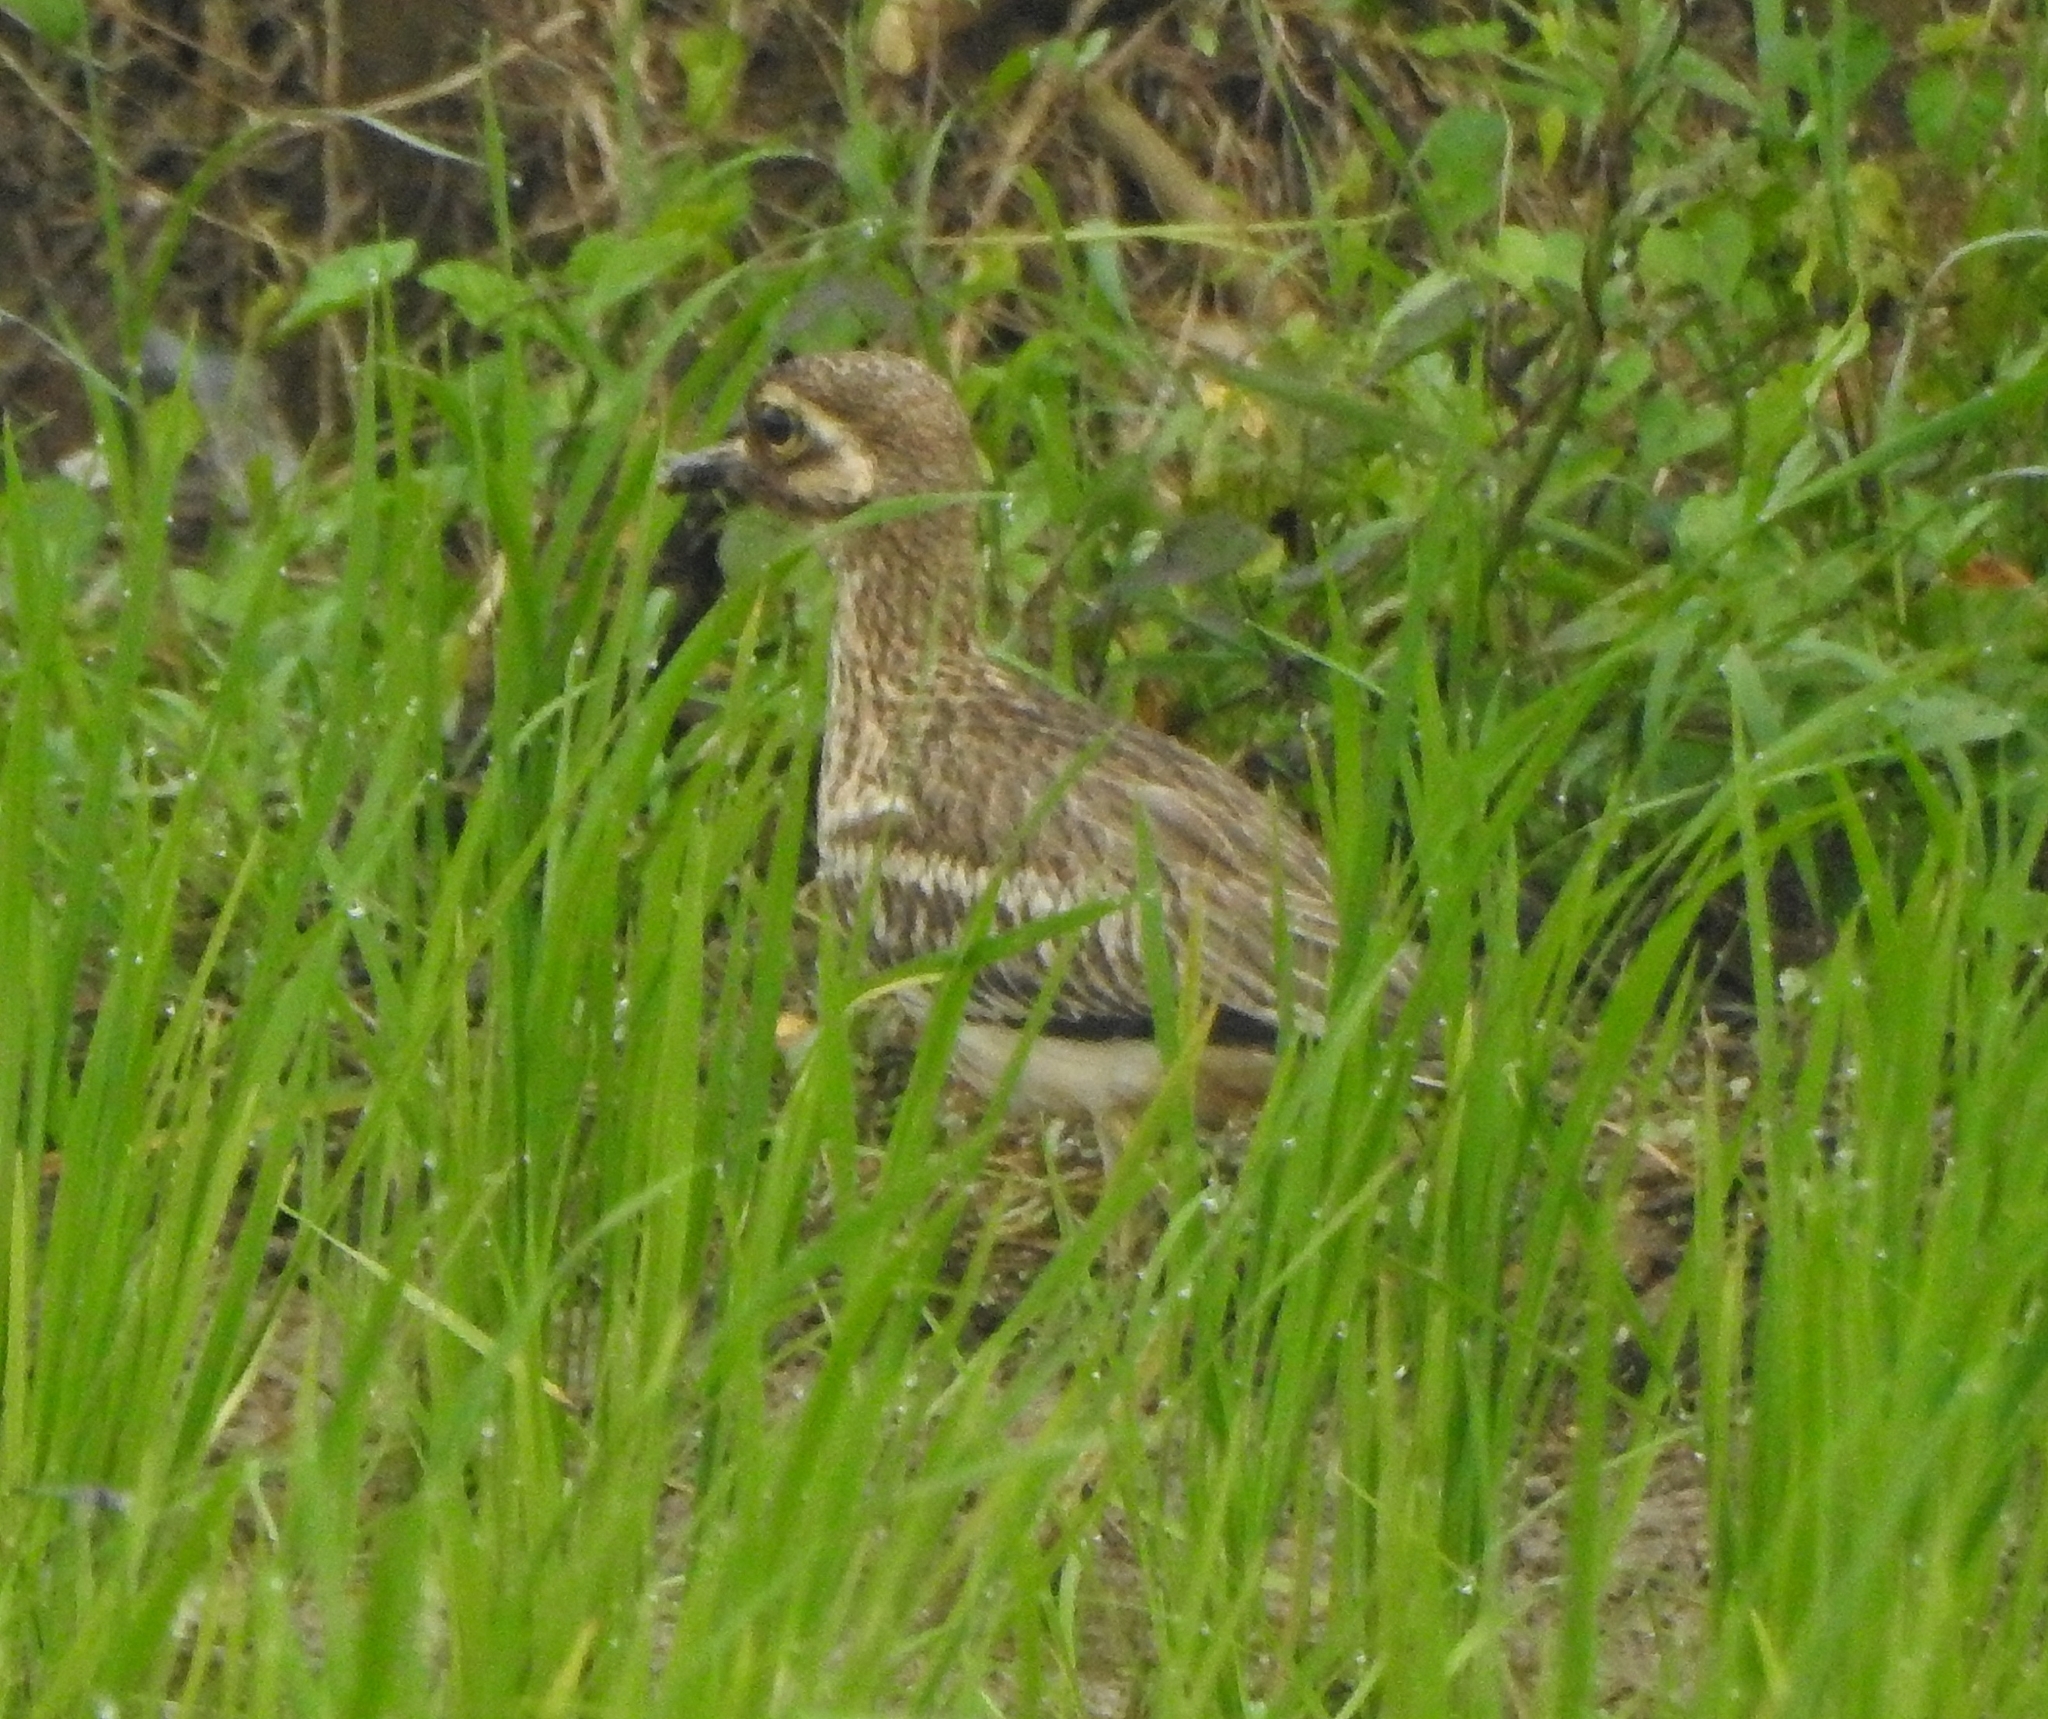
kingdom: Animalia
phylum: Chordata
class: Aves
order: Charadriiformes
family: Burhinidae
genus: Burhinus
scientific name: Burhinus indicus
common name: Indian thick-knee
